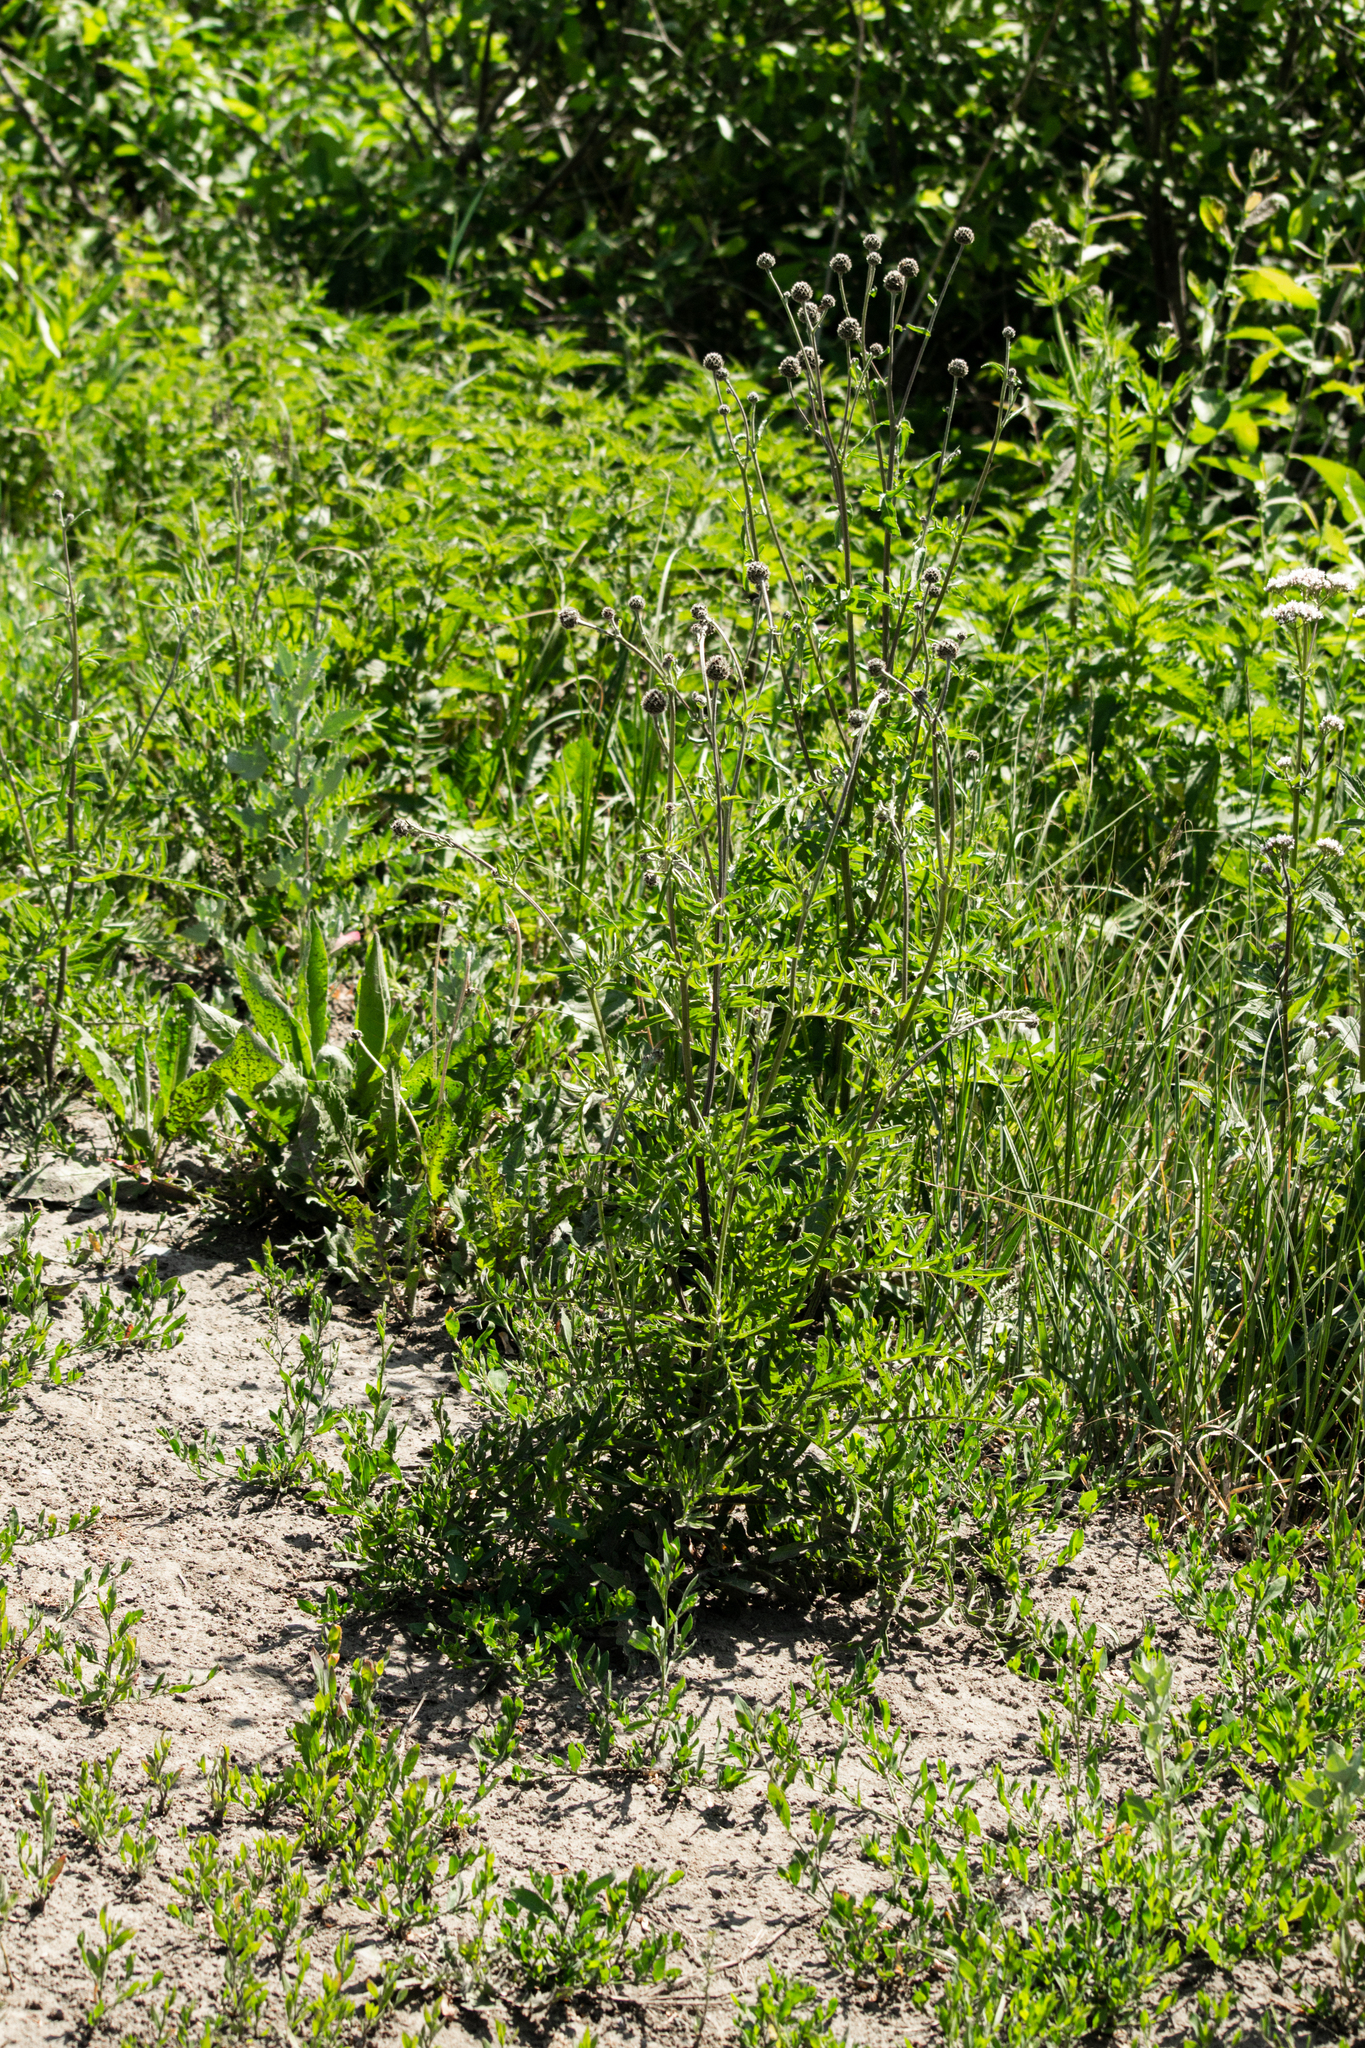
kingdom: Plantae
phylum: Tracheophyta
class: Magnoliopsida
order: Asterales
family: Asteraceae
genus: Centaurea
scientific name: Centaurea scabiosa
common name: Greater knapweed
